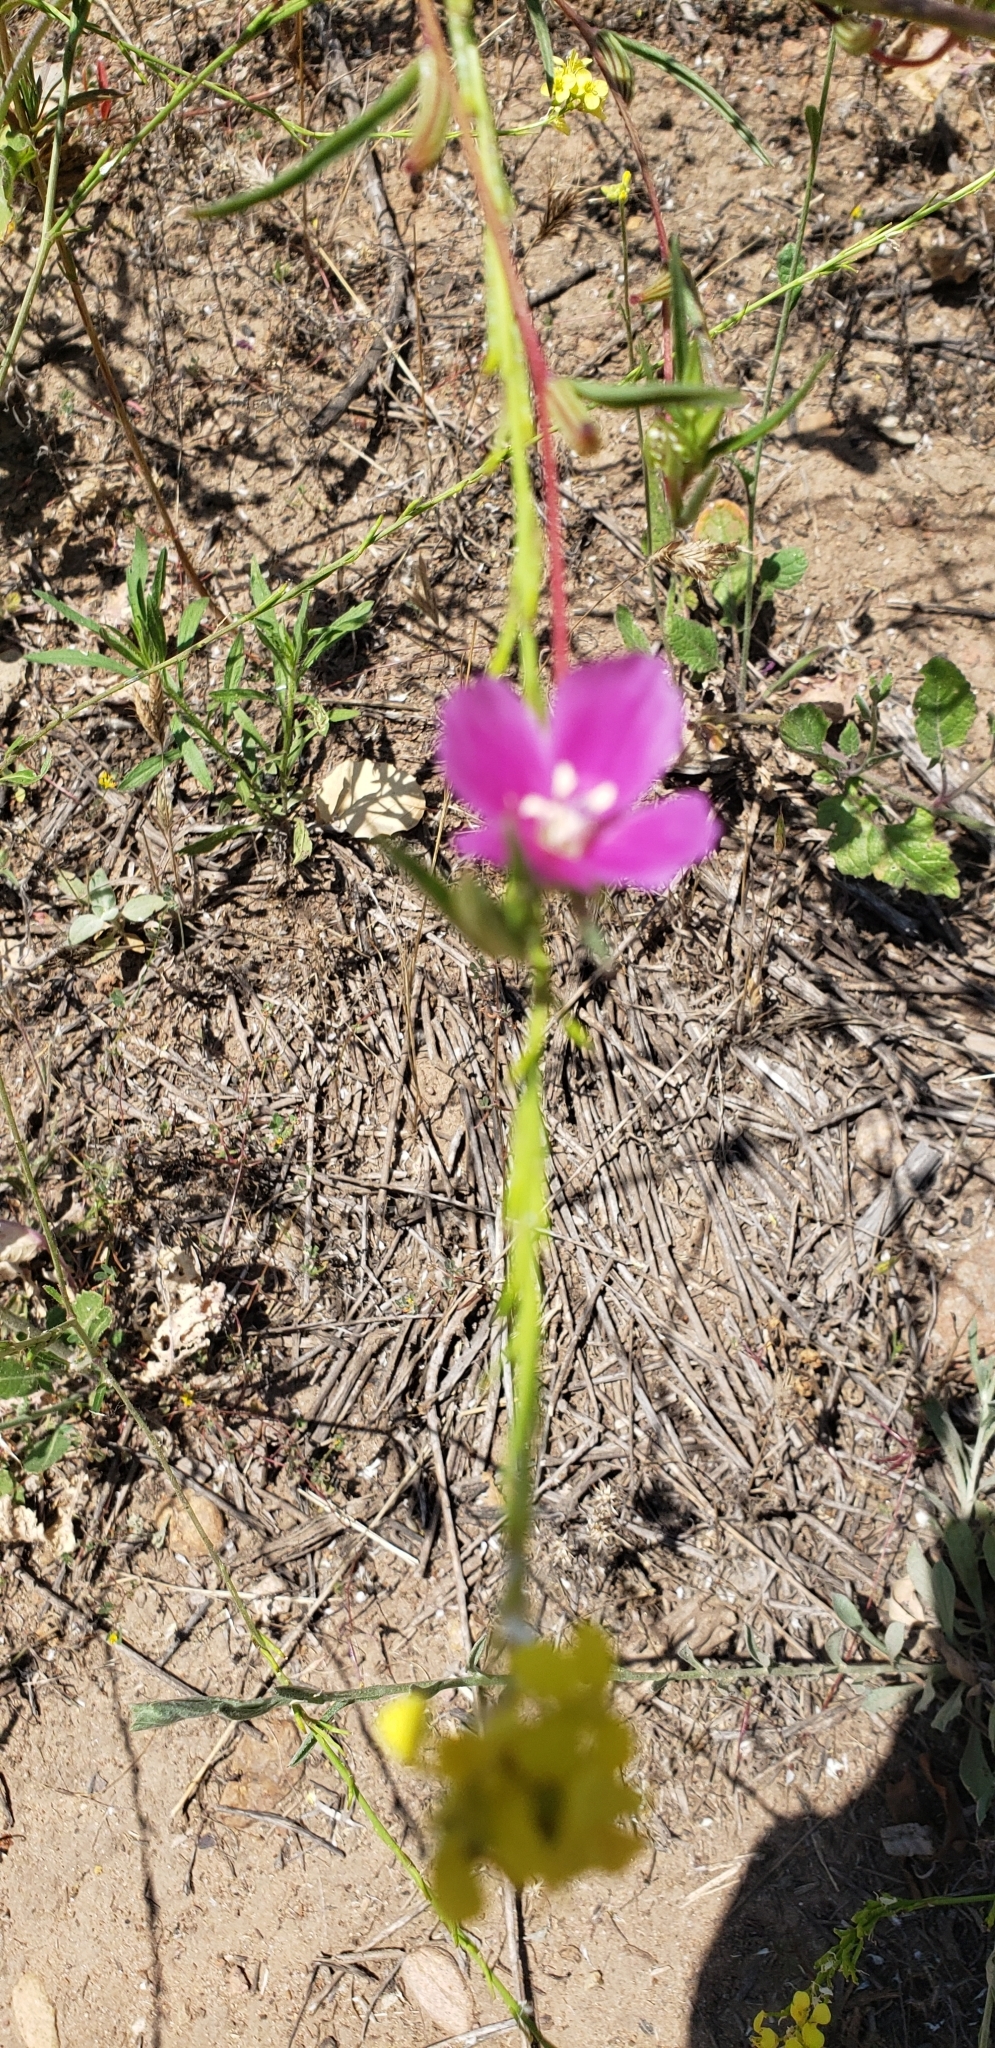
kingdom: Plantae
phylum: Tracheophyta
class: Magnoliopsida
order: Myrtales
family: Onagraceae
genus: Clarkia
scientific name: Clarkia purpurea
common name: Purple clarkia
